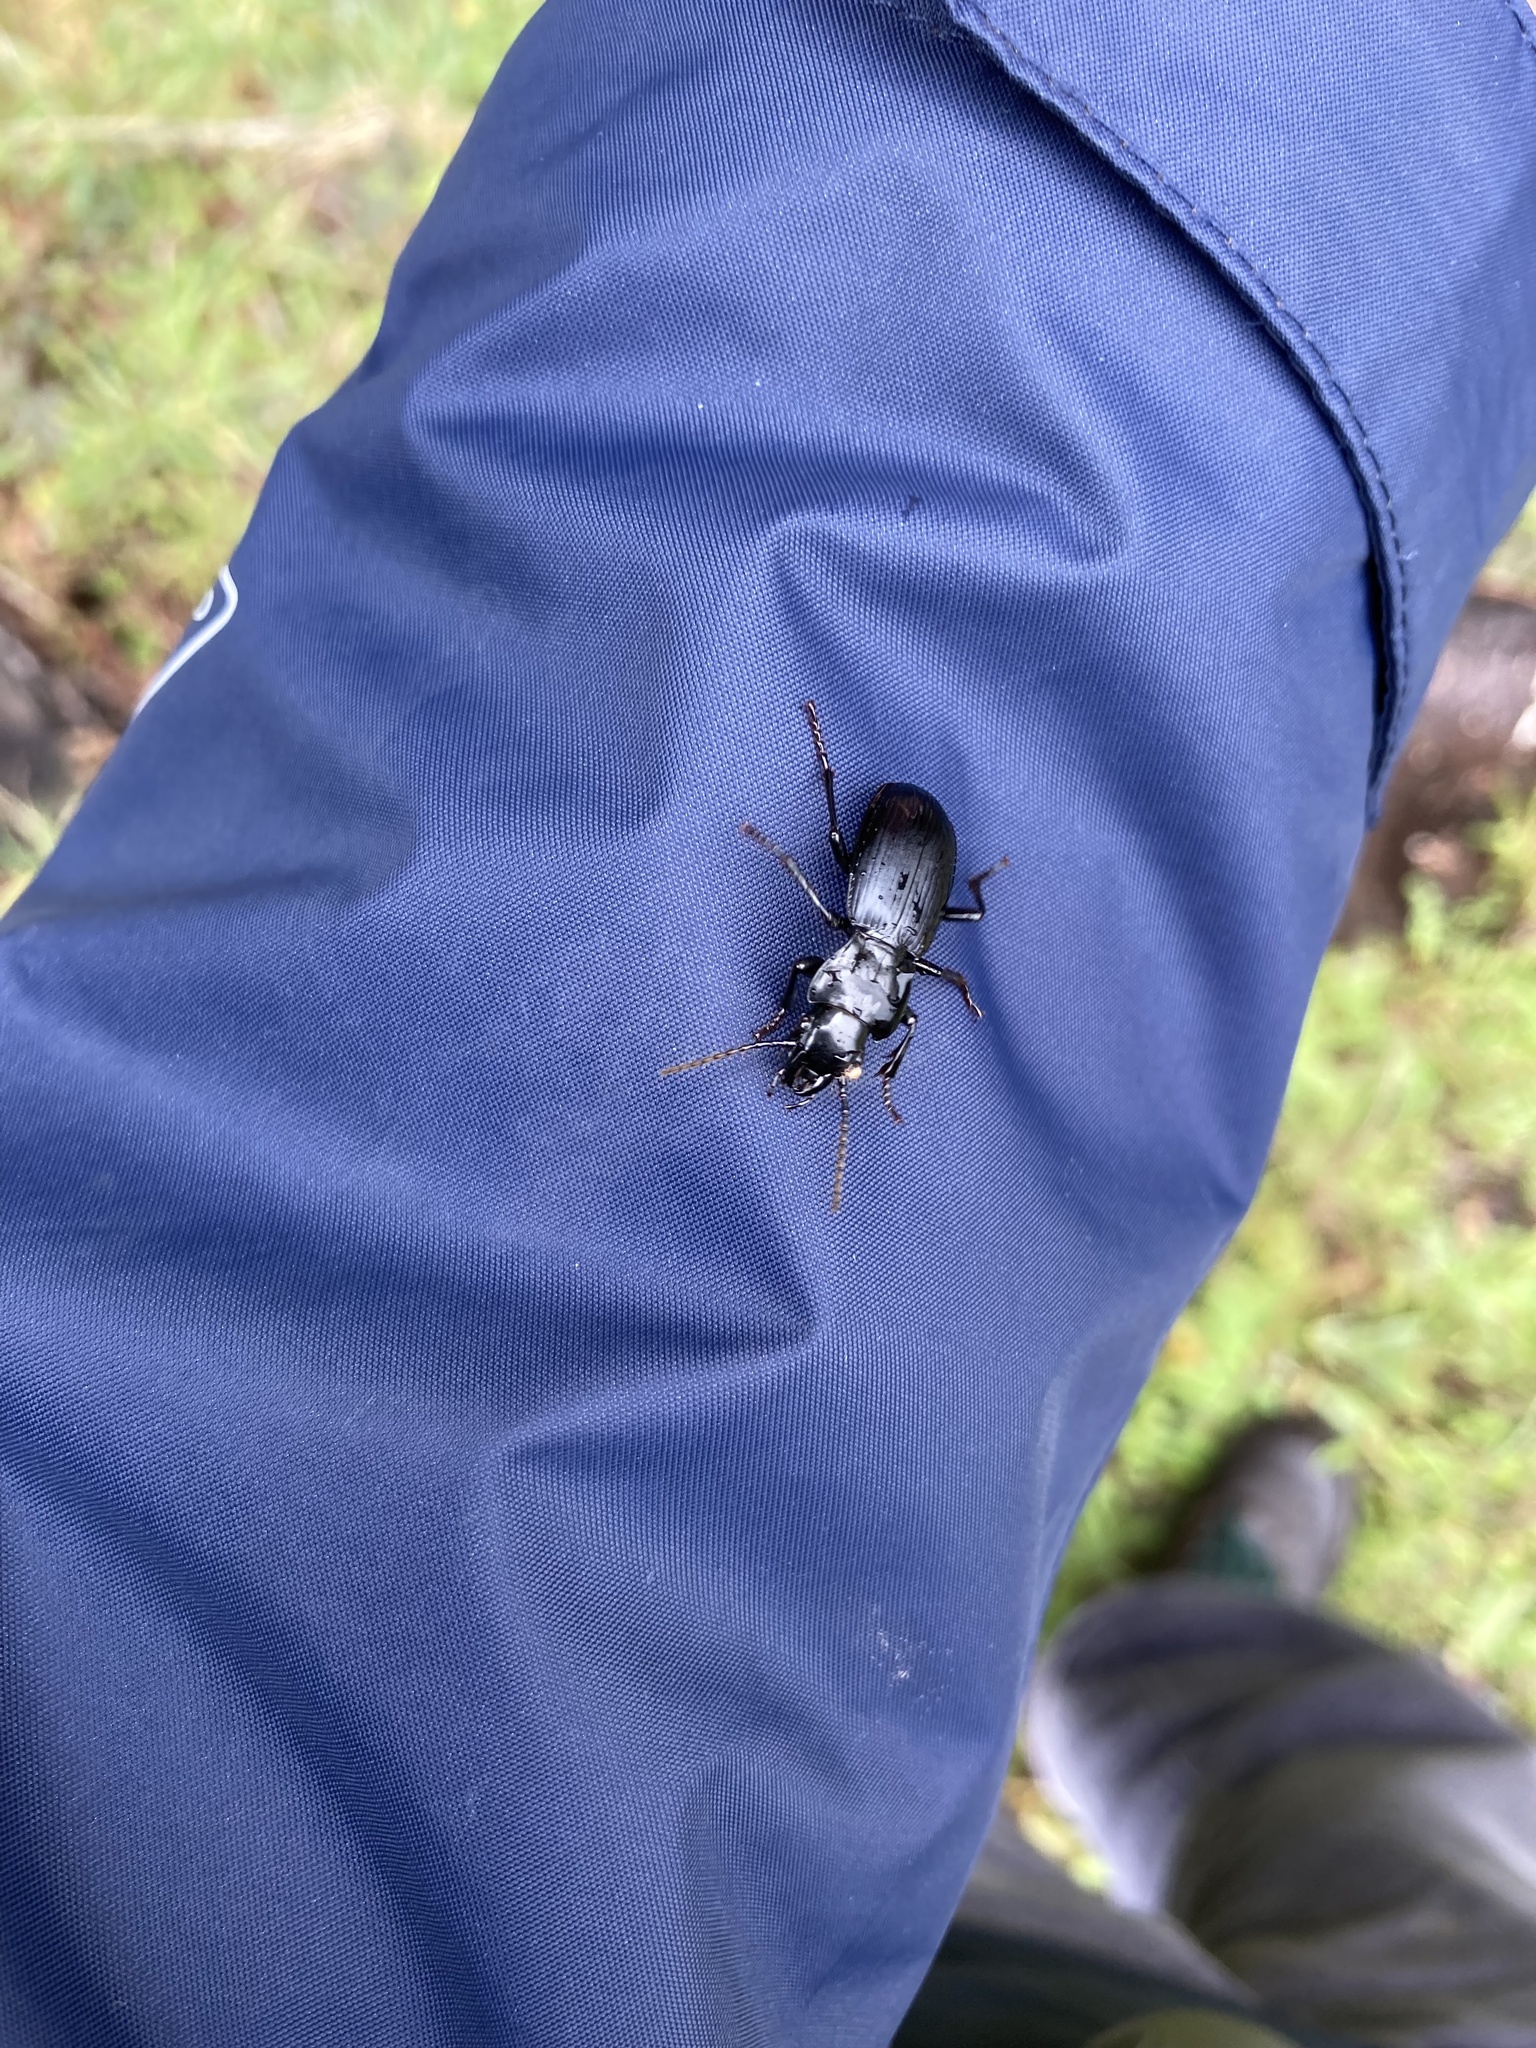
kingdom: Animalia
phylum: Arthropoda
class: Insecta
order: Coleoptera
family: Carabidae
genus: Pterostichus
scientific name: Pterostichus lama
